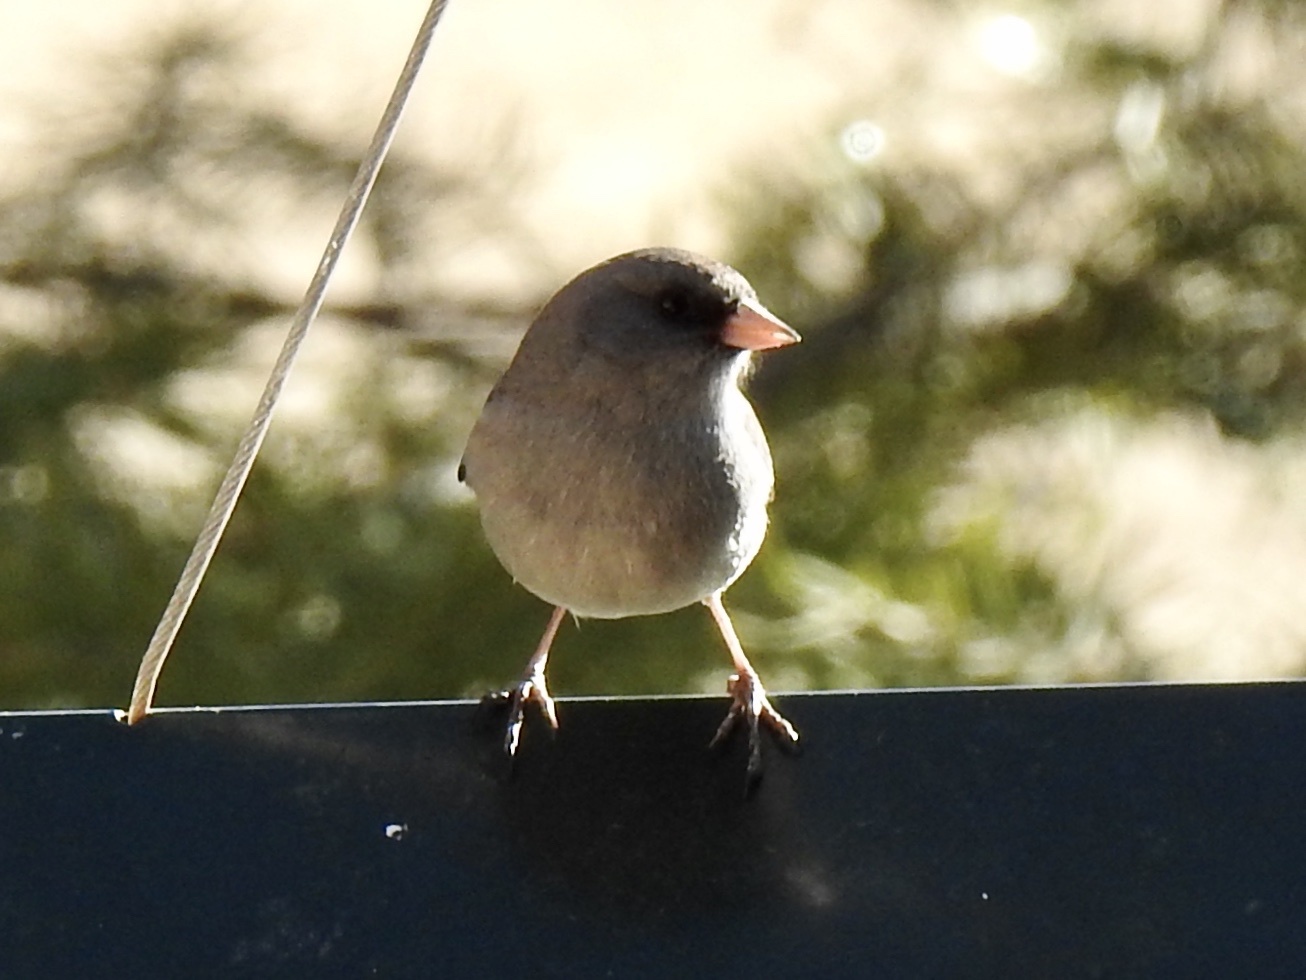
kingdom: Animalia
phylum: Chordata
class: Aves
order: Passeriformes
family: Passerellidae
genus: Junco
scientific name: Junco hyemalis
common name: Dark-eyed junco
